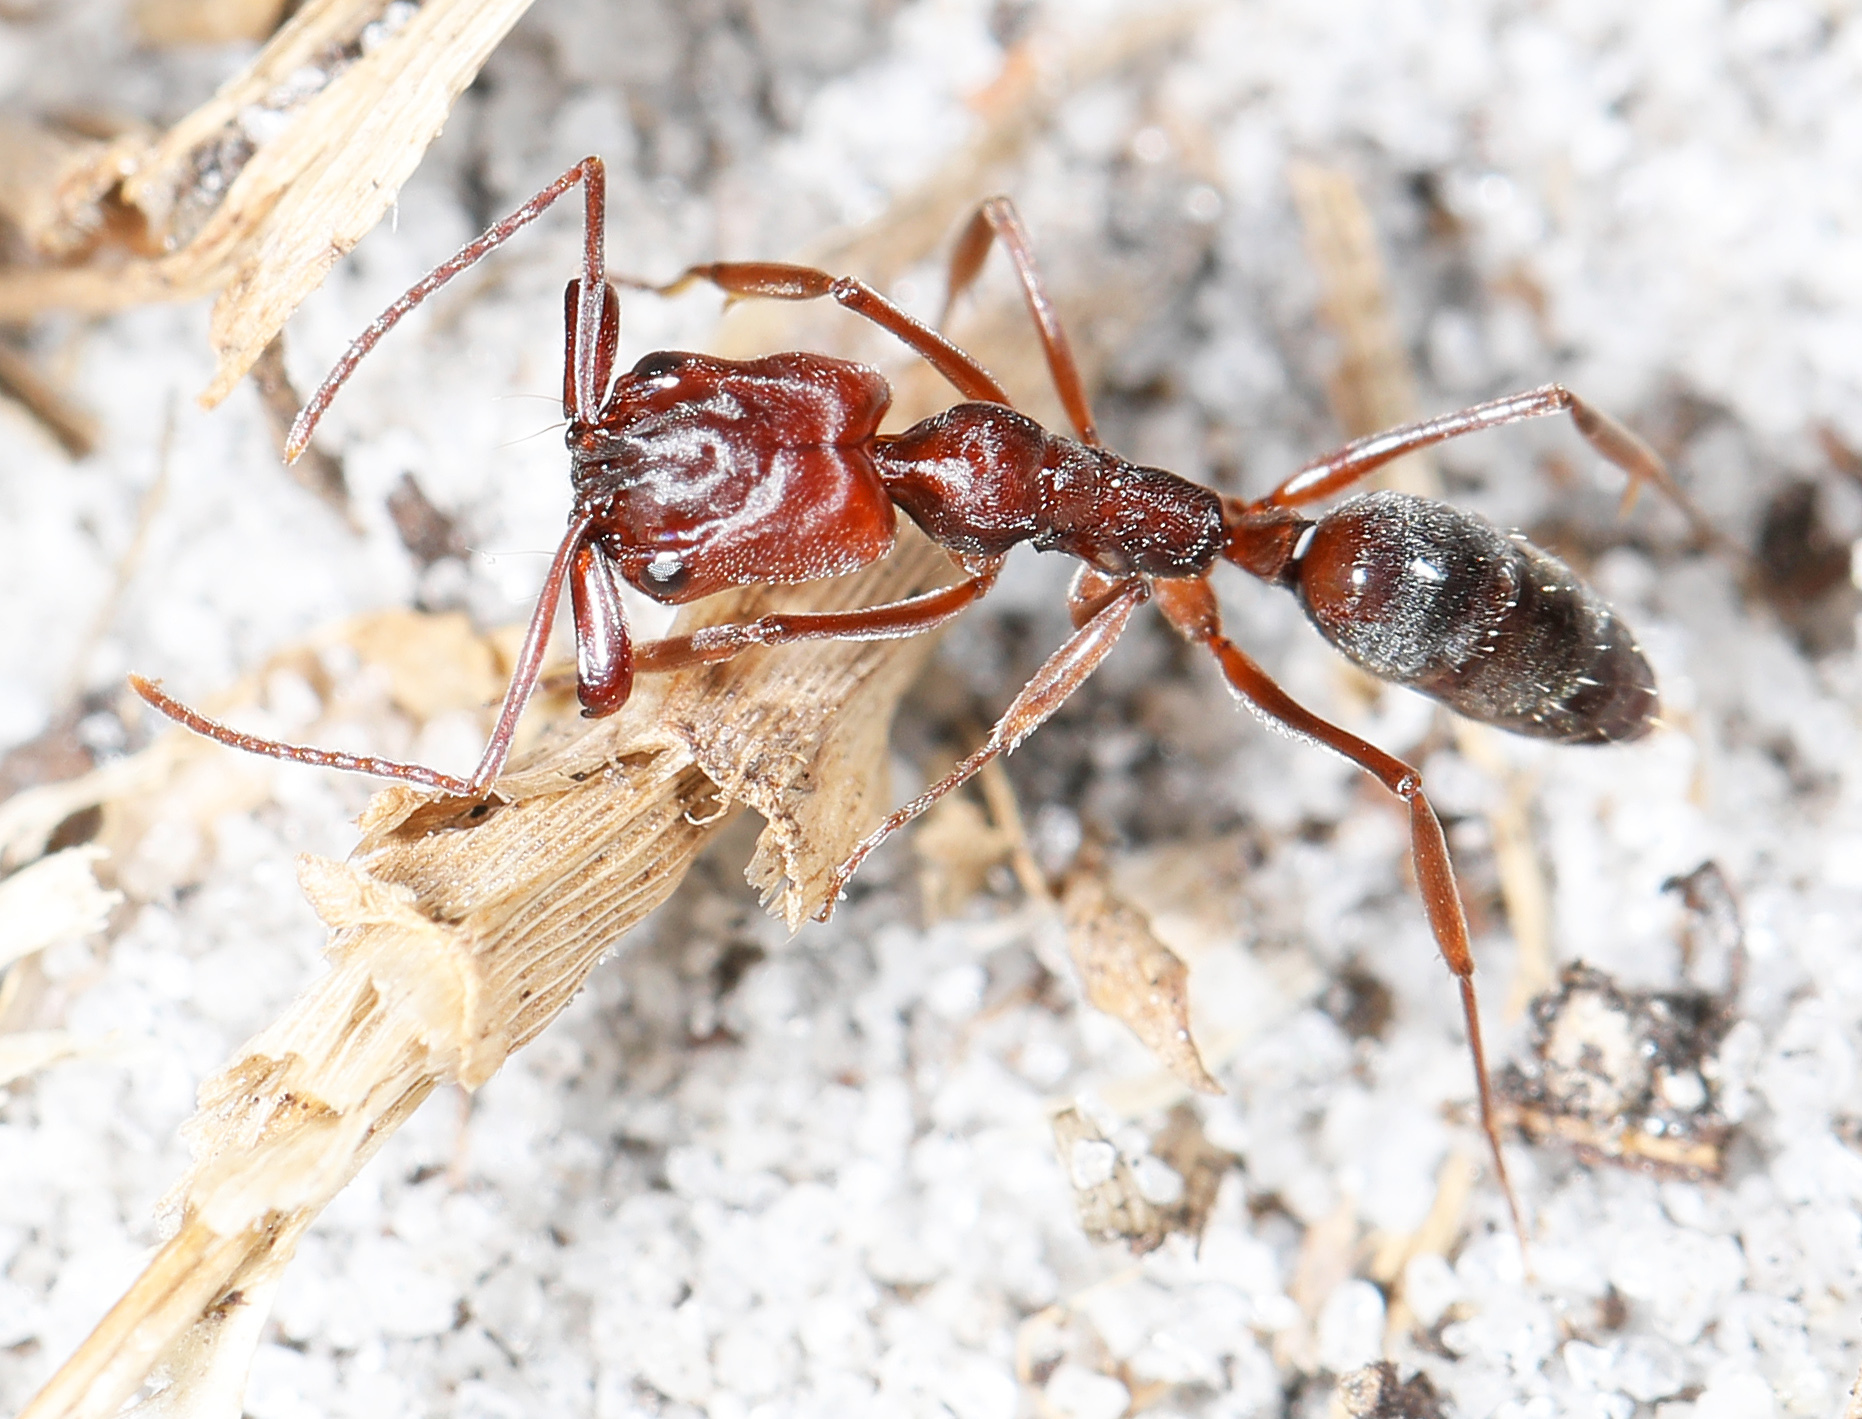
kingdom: Animalia
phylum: Arthropoda
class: Insecta
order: Hymenoptera
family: Formicidae
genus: Odontomachus
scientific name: Odontomachus ruginodis
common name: Trapjaw ant
